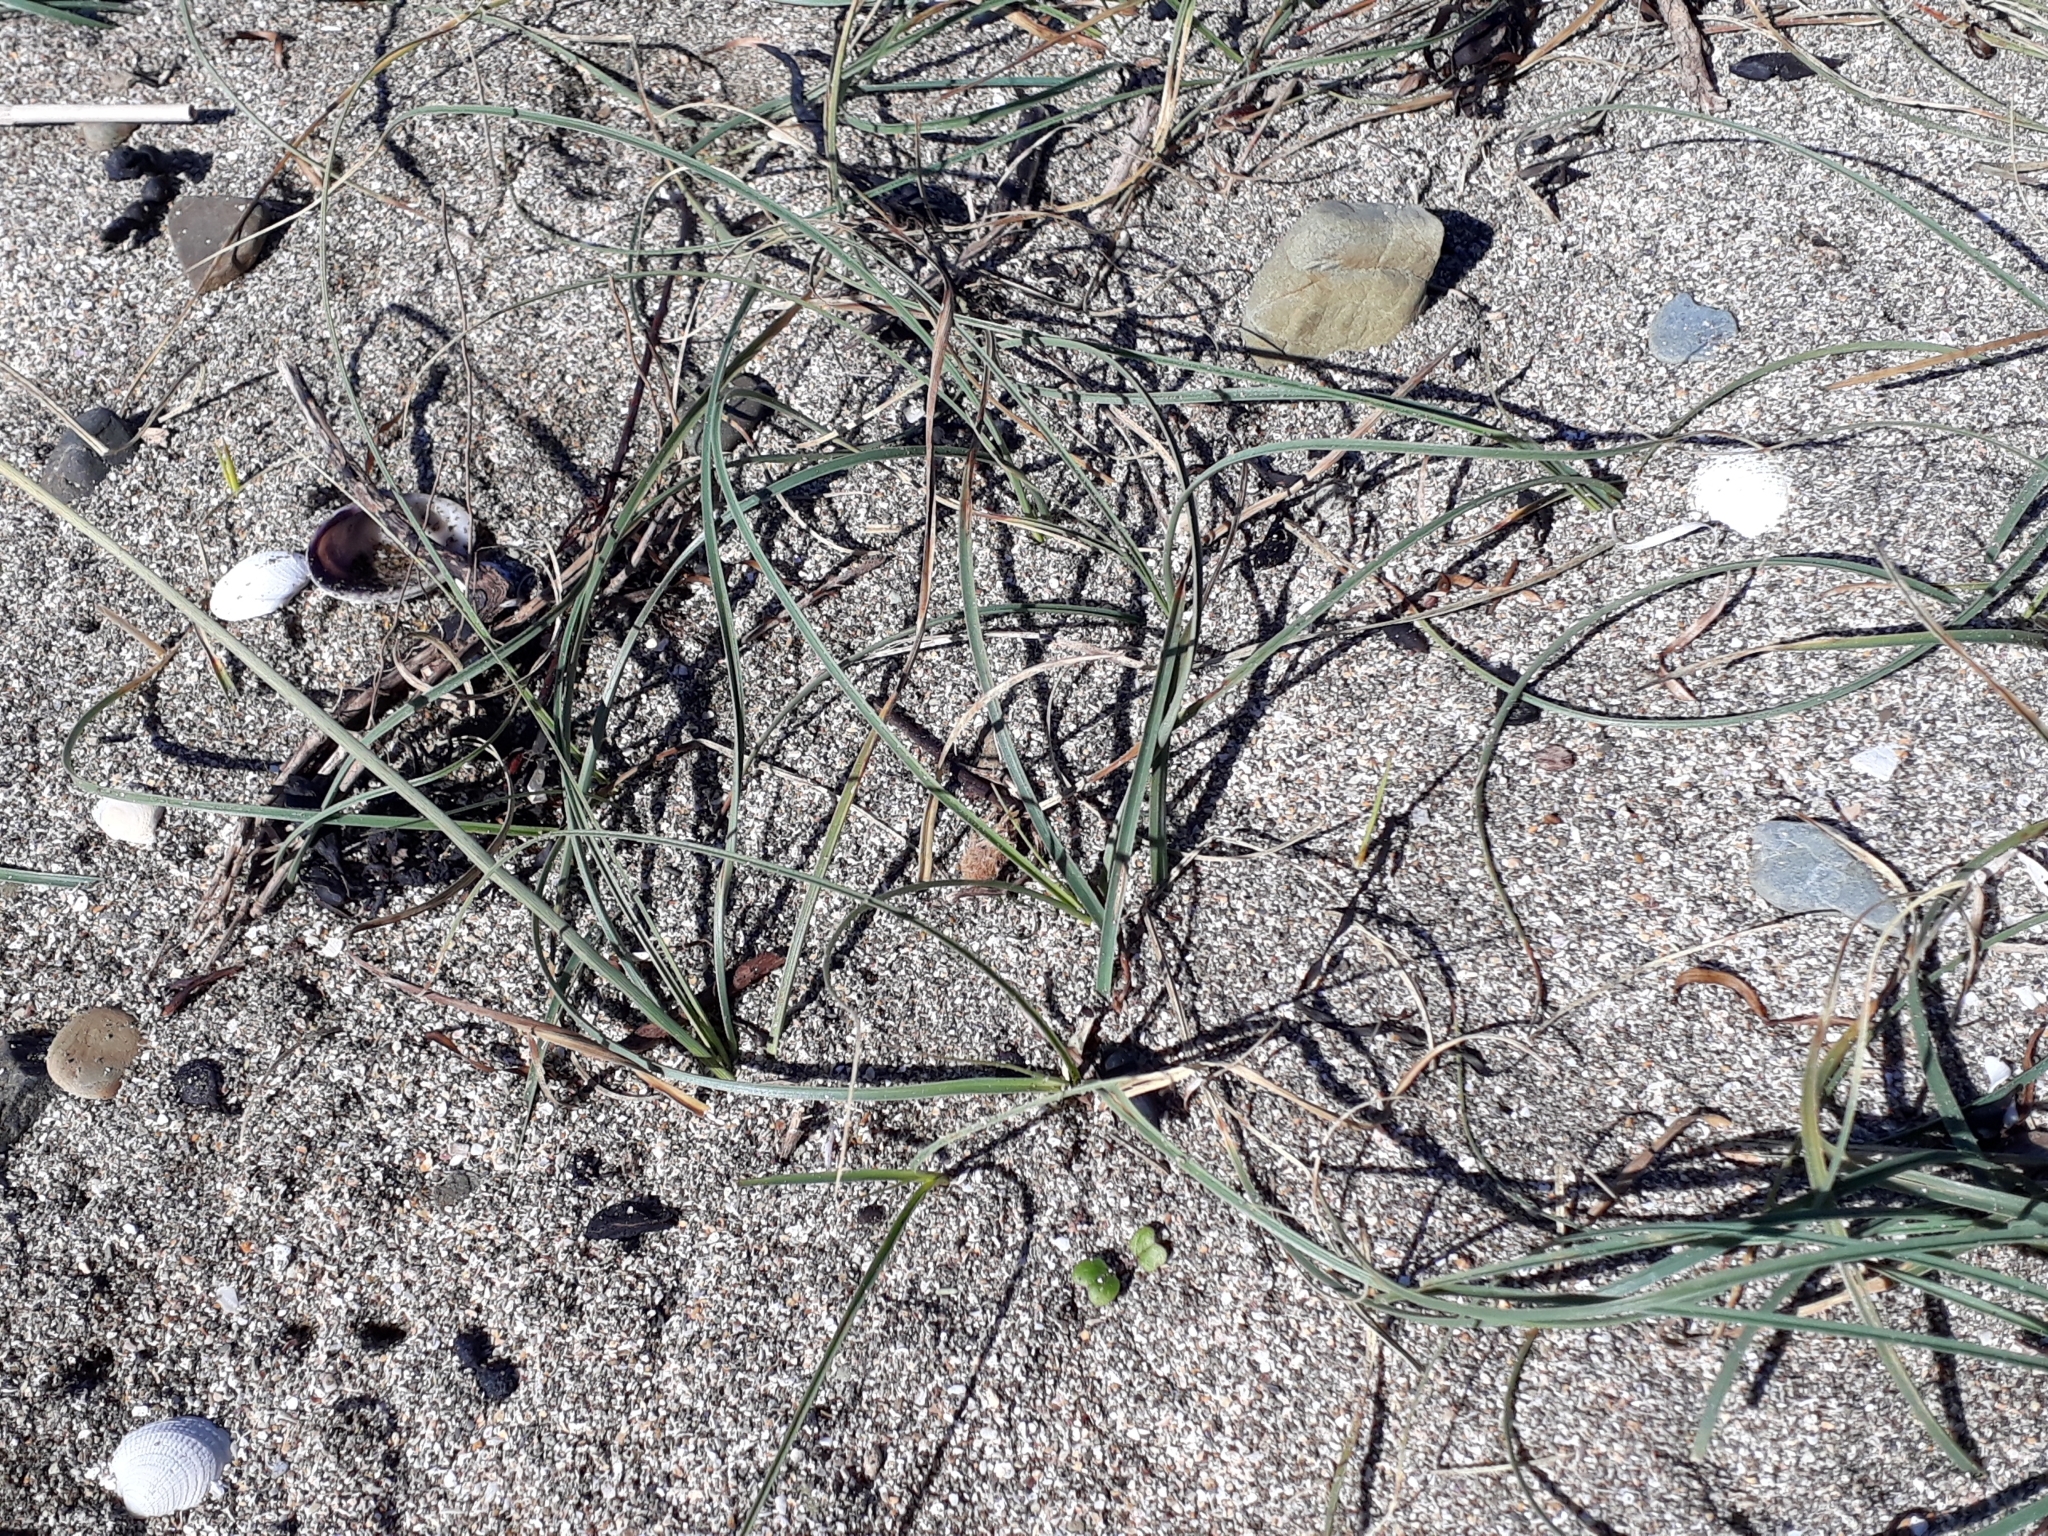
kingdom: Plantae
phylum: Tracheophyta
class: Liliopsida
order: Poales
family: Cyperaceae
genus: Carex
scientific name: Carex pumila
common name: Dwarf sedge
